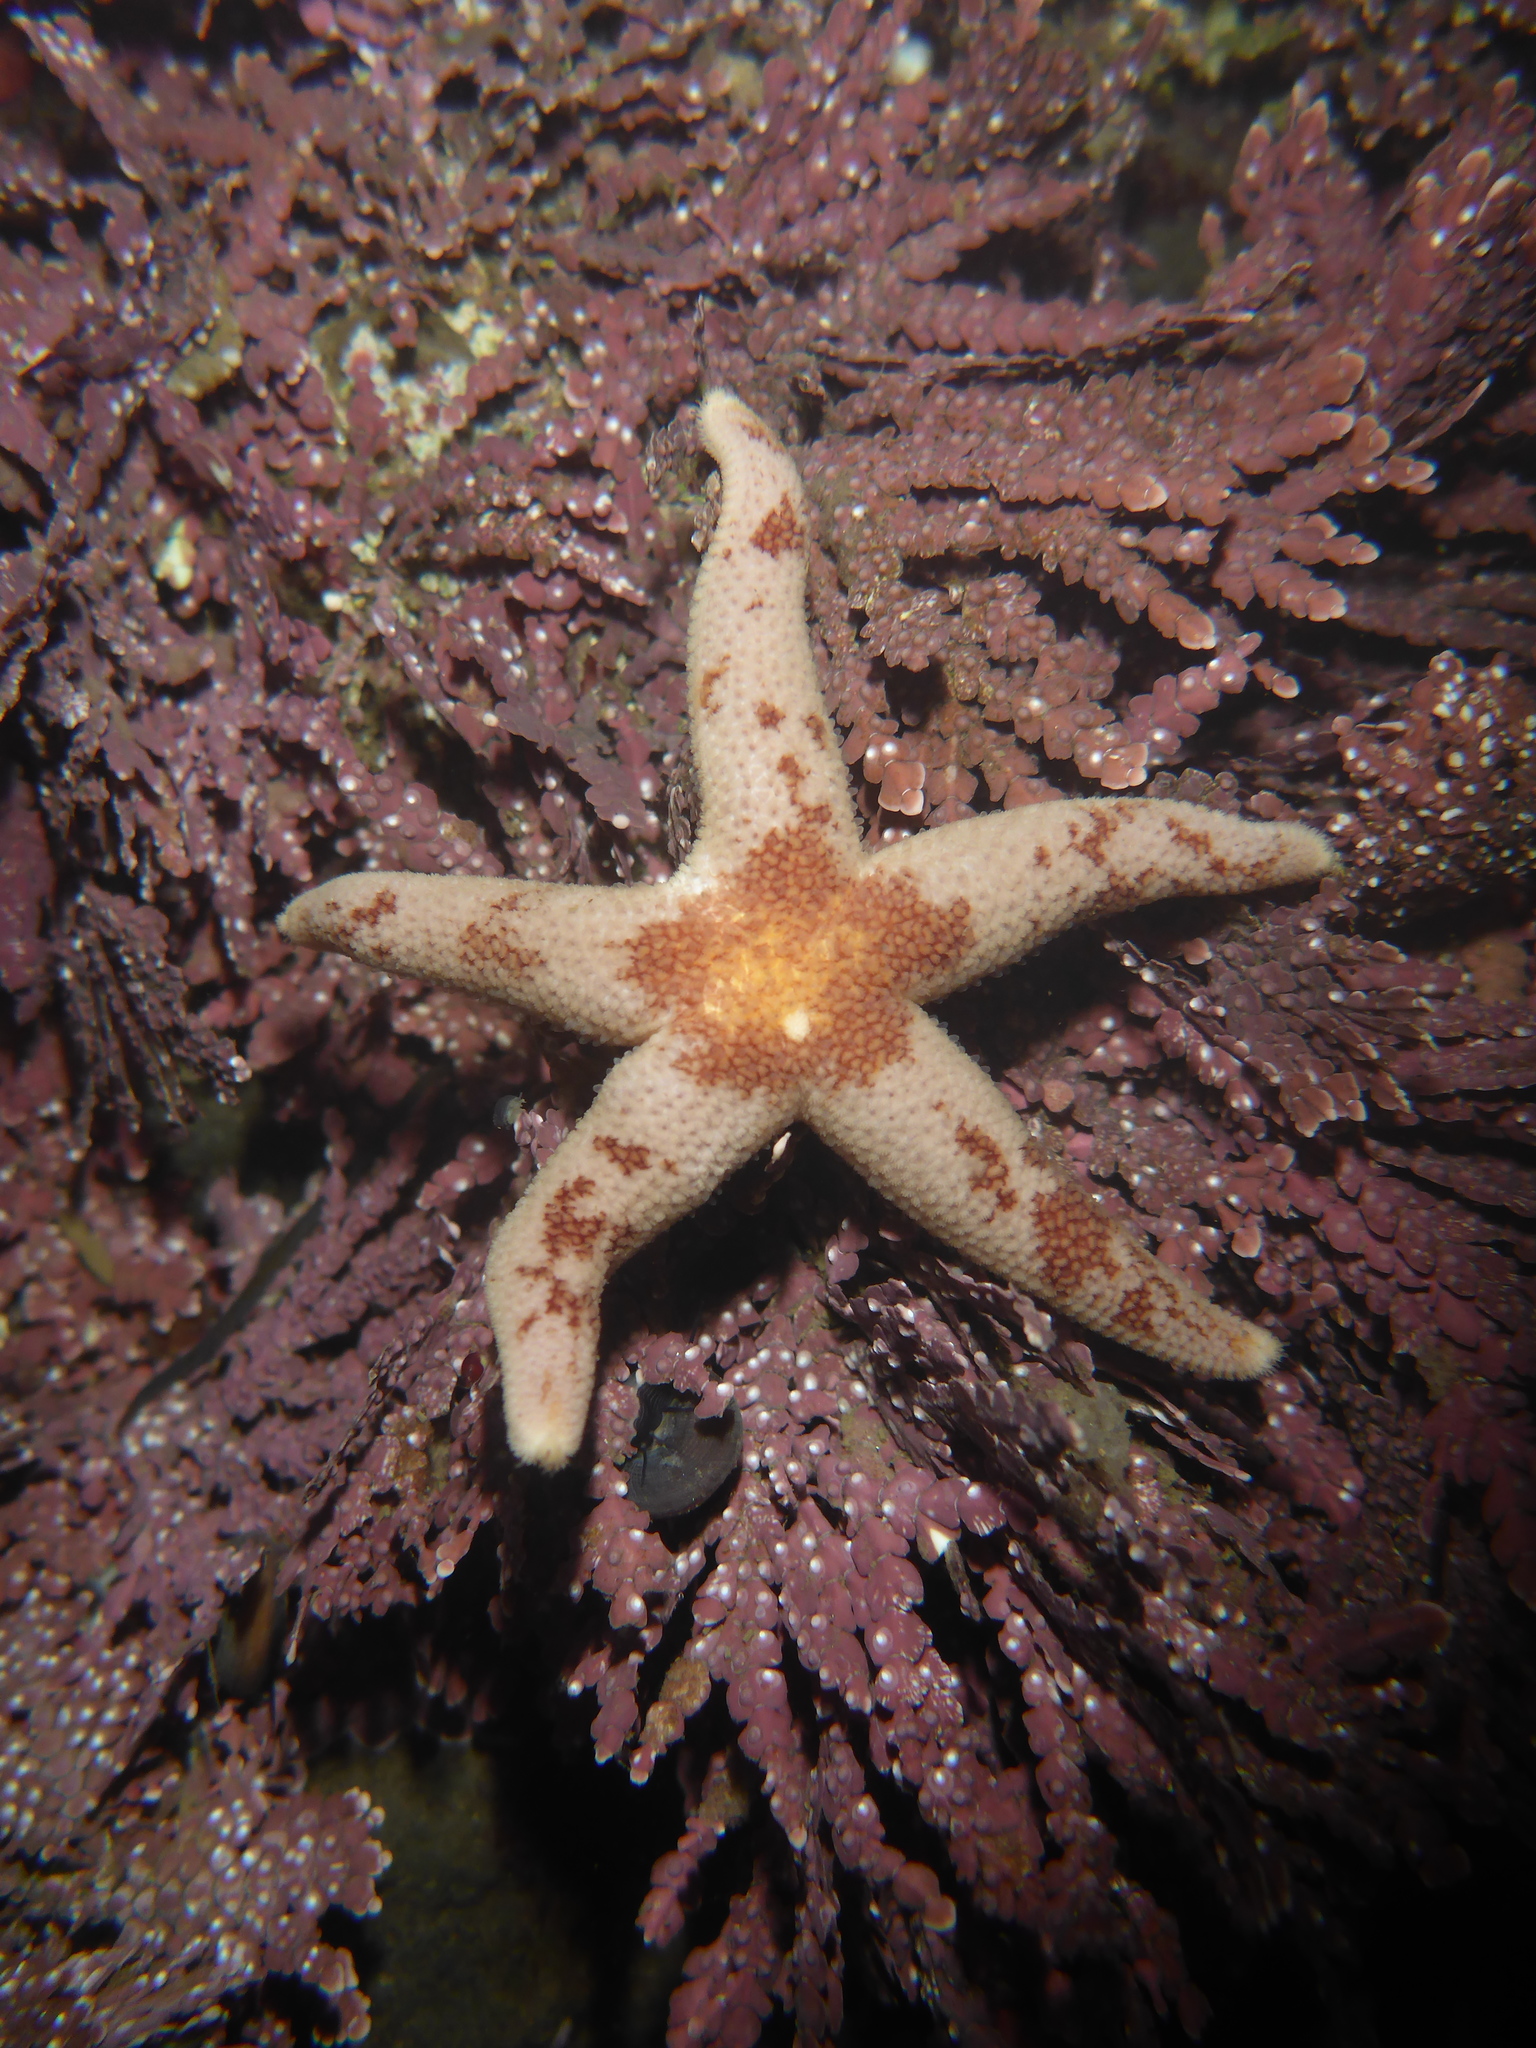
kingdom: Animalia
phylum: Echinodermata
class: Asteroidea
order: Spinulosida
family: Echinasteridae
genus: Henricia
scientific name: Henricia pumila
